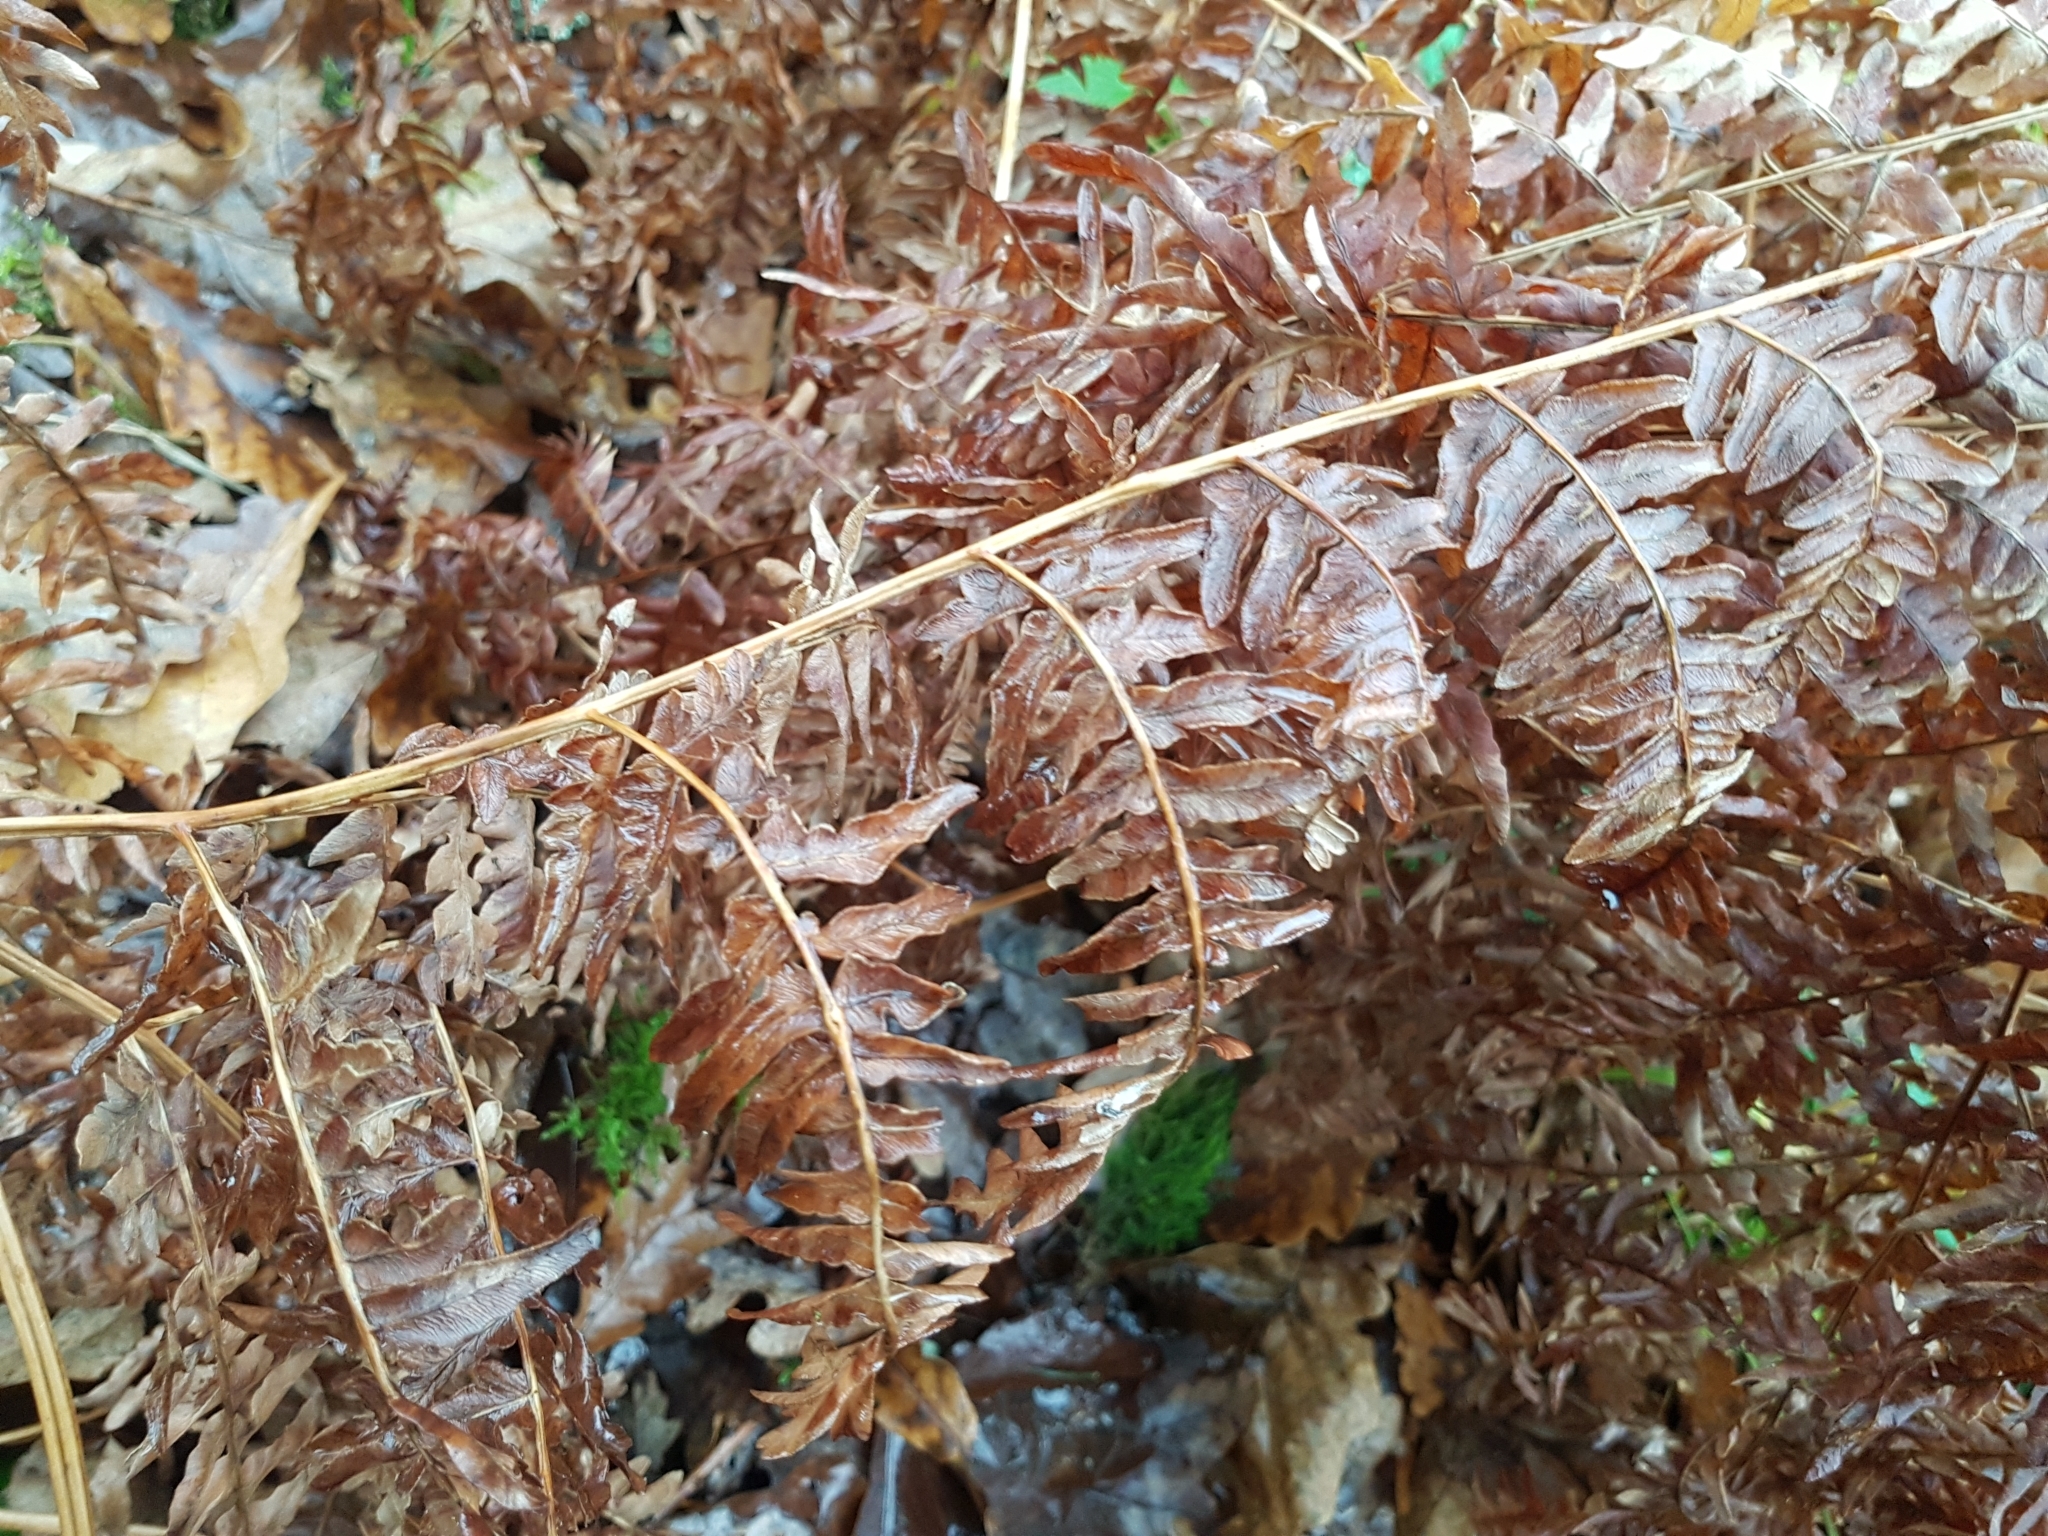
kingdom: Plantae
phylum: Tracheophyta
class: Polypodiopsida
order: Polypodiales
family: Dennstaedtiaceae
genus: Pteridium
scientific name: Pteridium aquilinum
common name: Bracken
